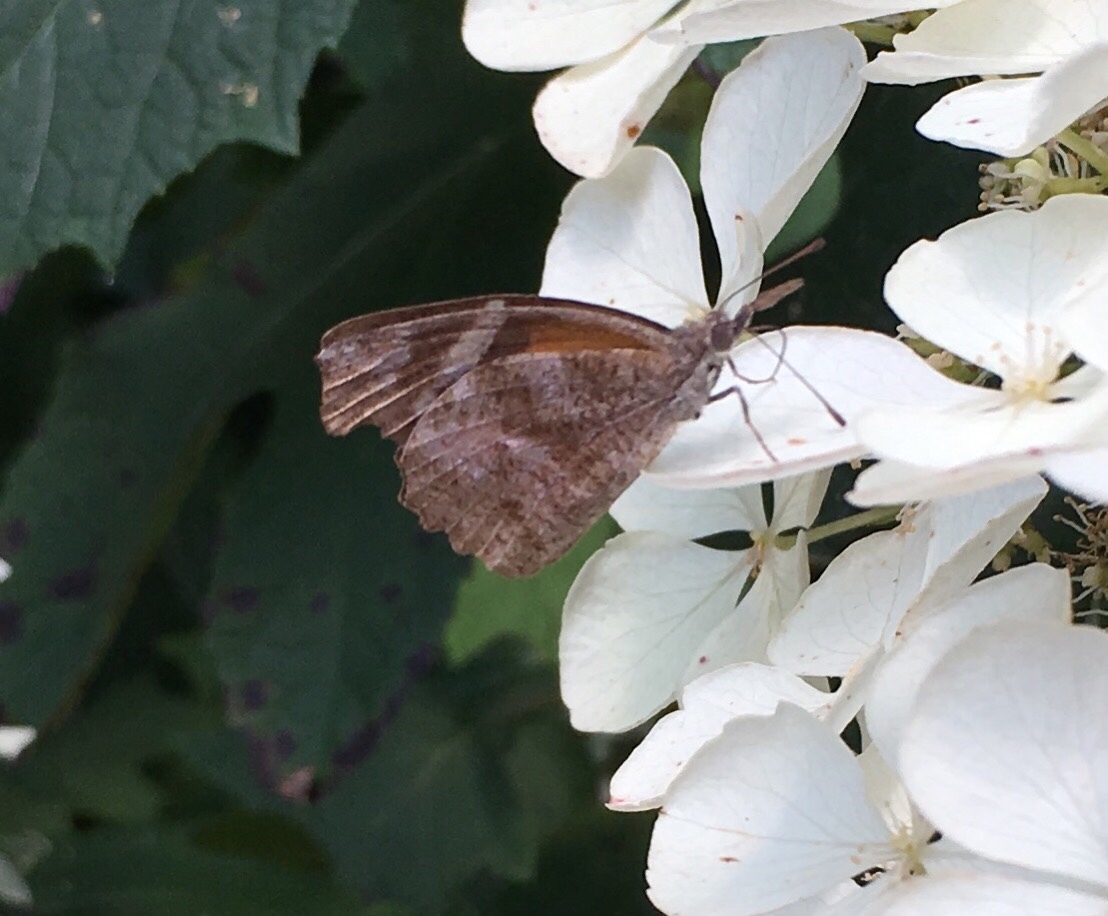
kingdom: Animalia
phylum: Arthropoda
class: Insecta
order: Lepidoptera
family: Nymphalidae
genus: Libytheana
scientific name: Libytheana carinenta
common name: American snout
